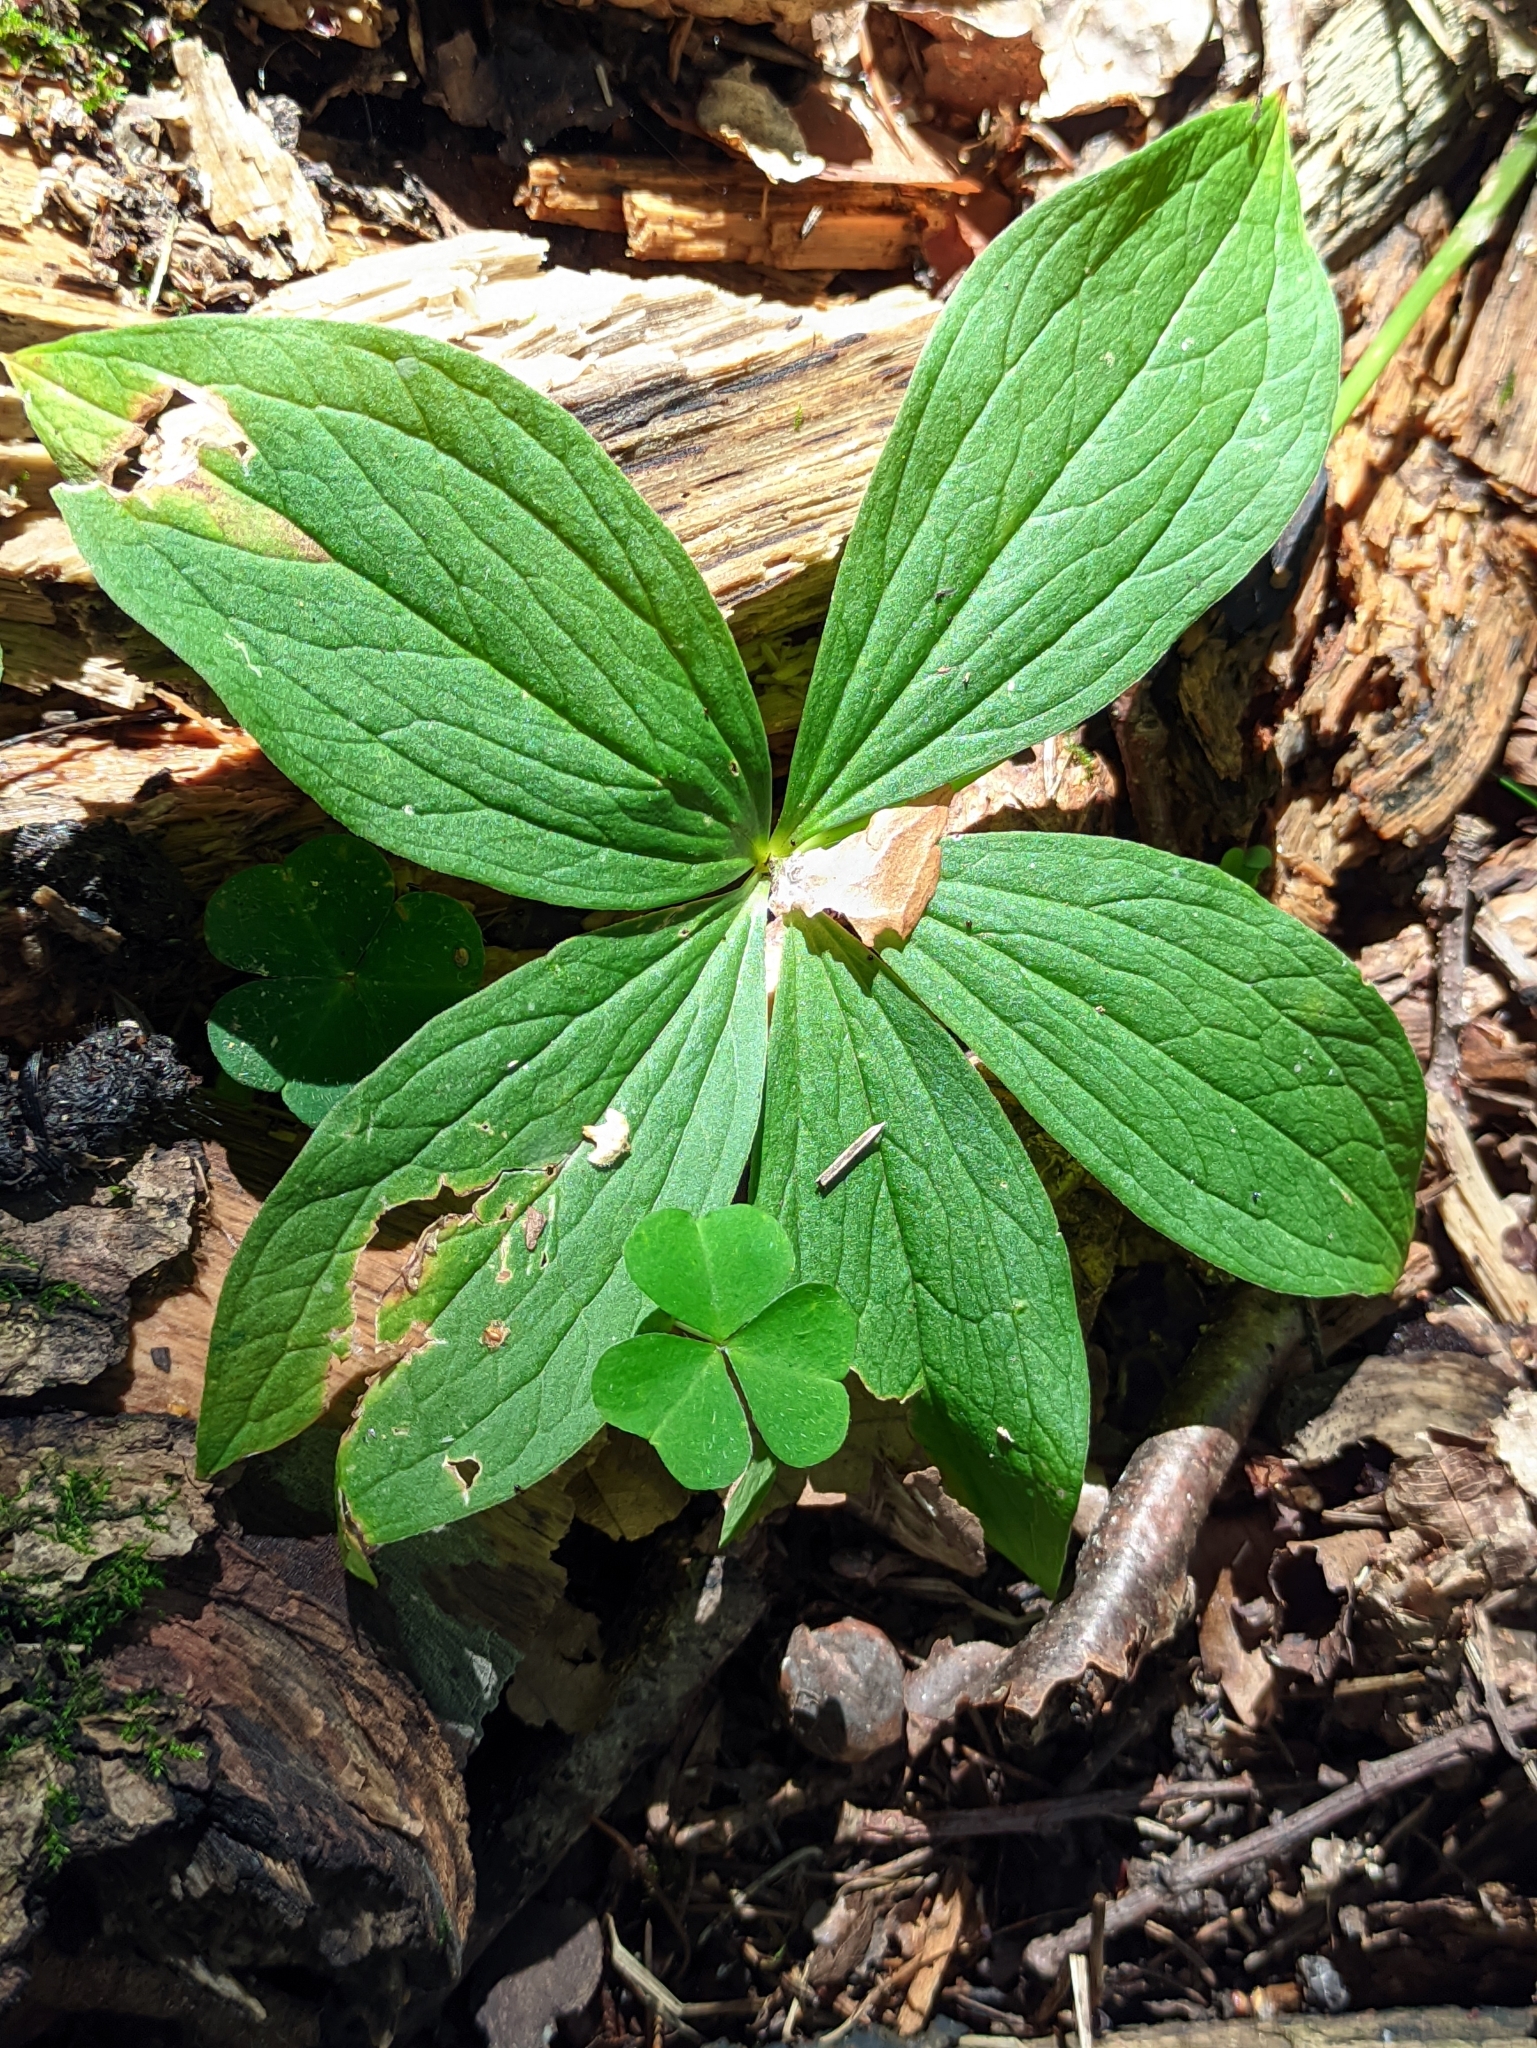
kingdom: Plantae
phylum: Tracheophyta
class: Liliopsida
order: Liliales
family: Melanthiaceae
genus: Paris
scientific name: Paris quadrifolia
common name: Herb-paris
